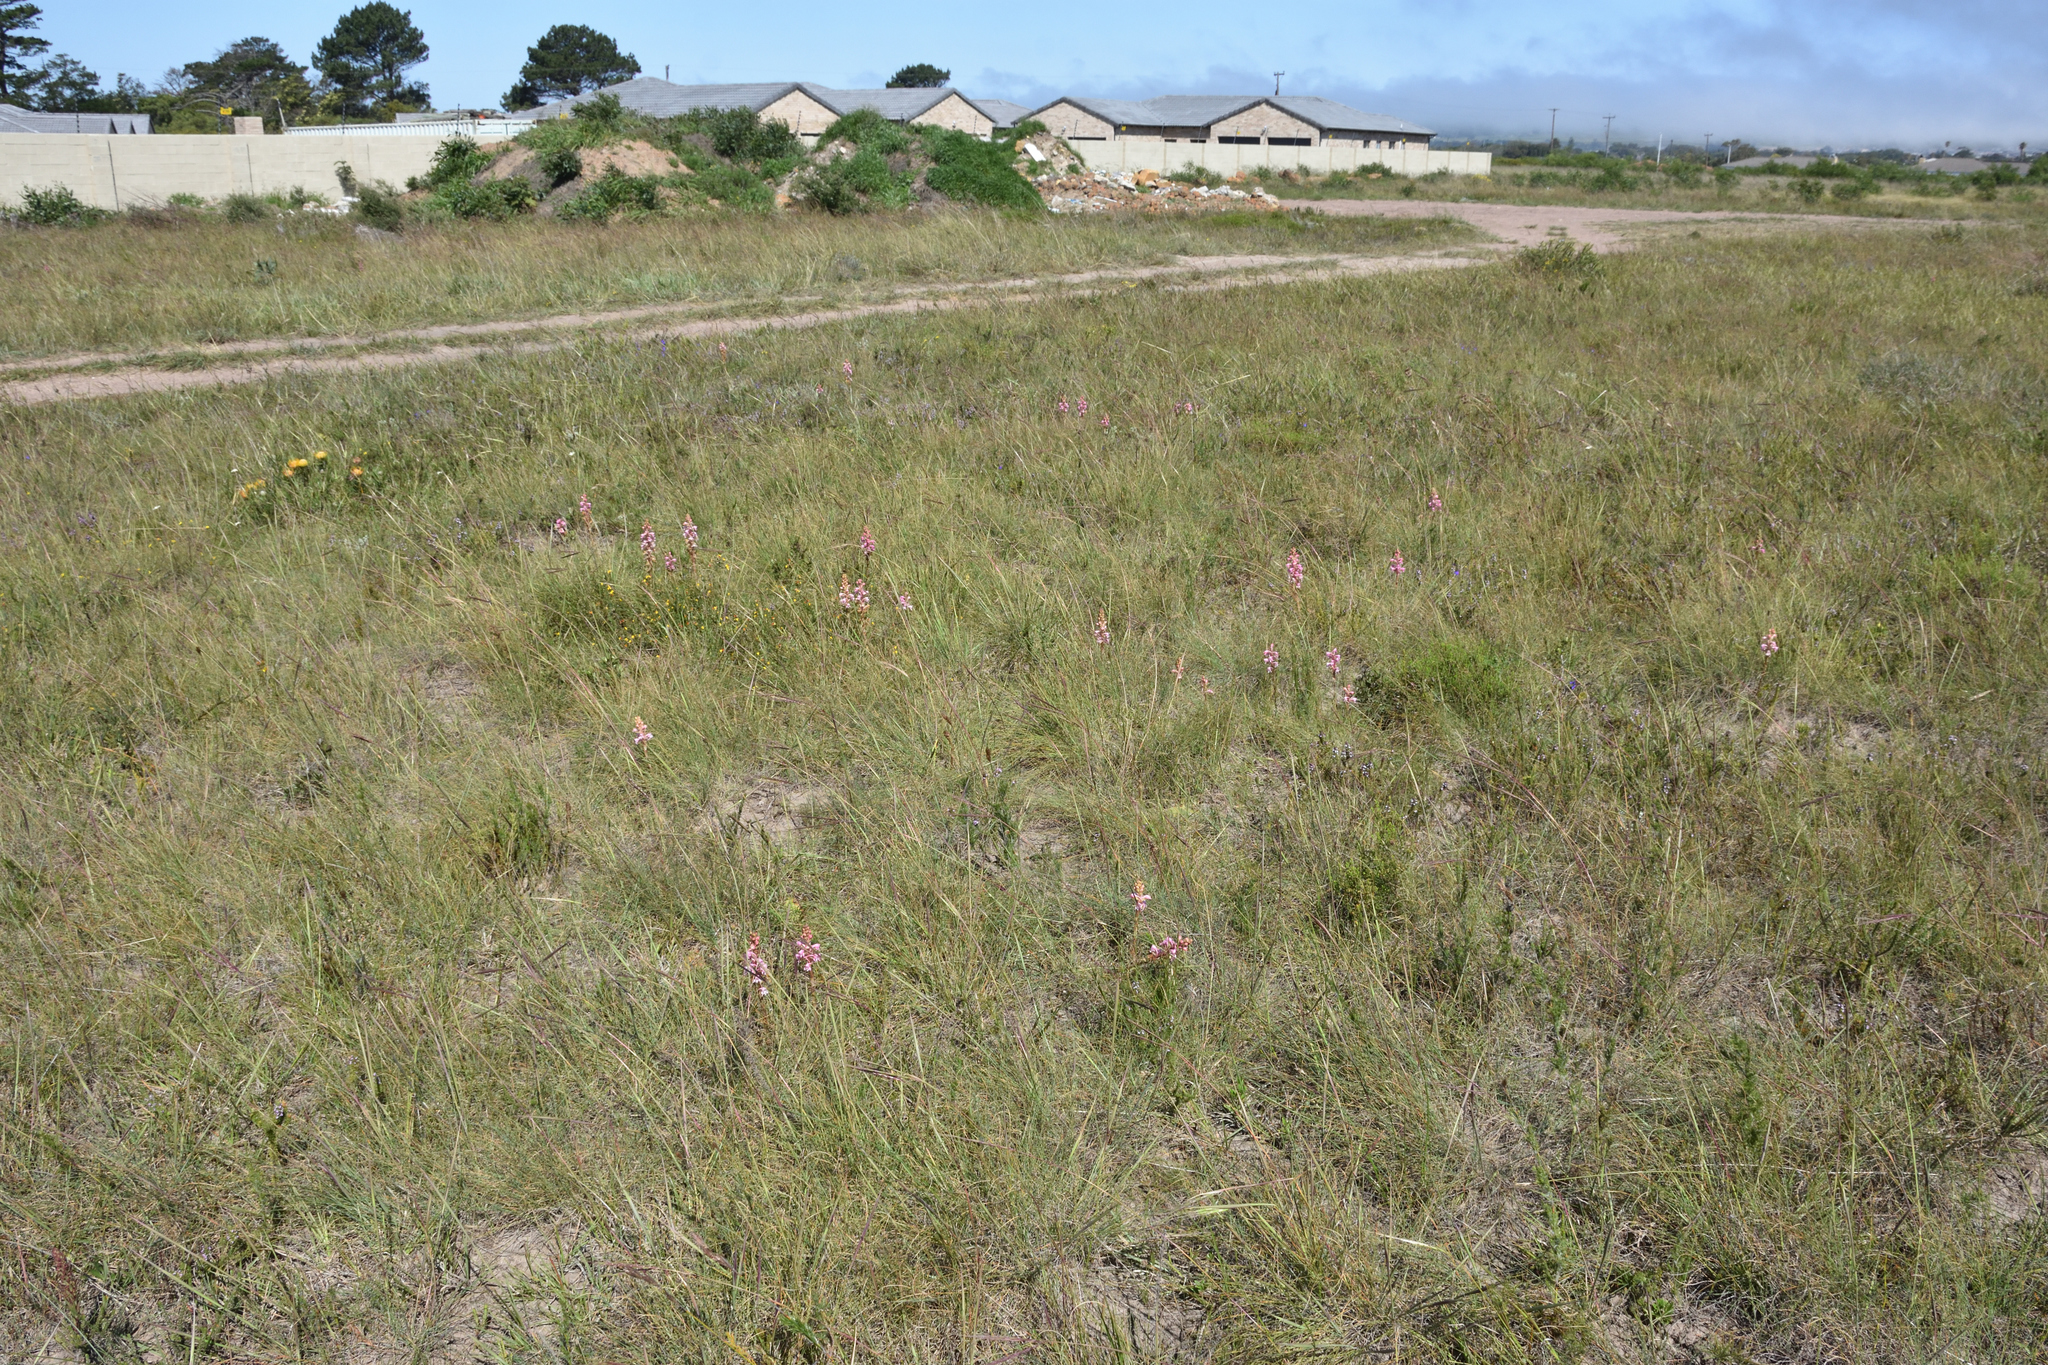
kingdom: Plantae
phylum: Tracheophyta
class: Liliopsida
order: Asparagales
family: Orchidaceae
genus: Satyrium
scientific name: Satyrium membranaceum
